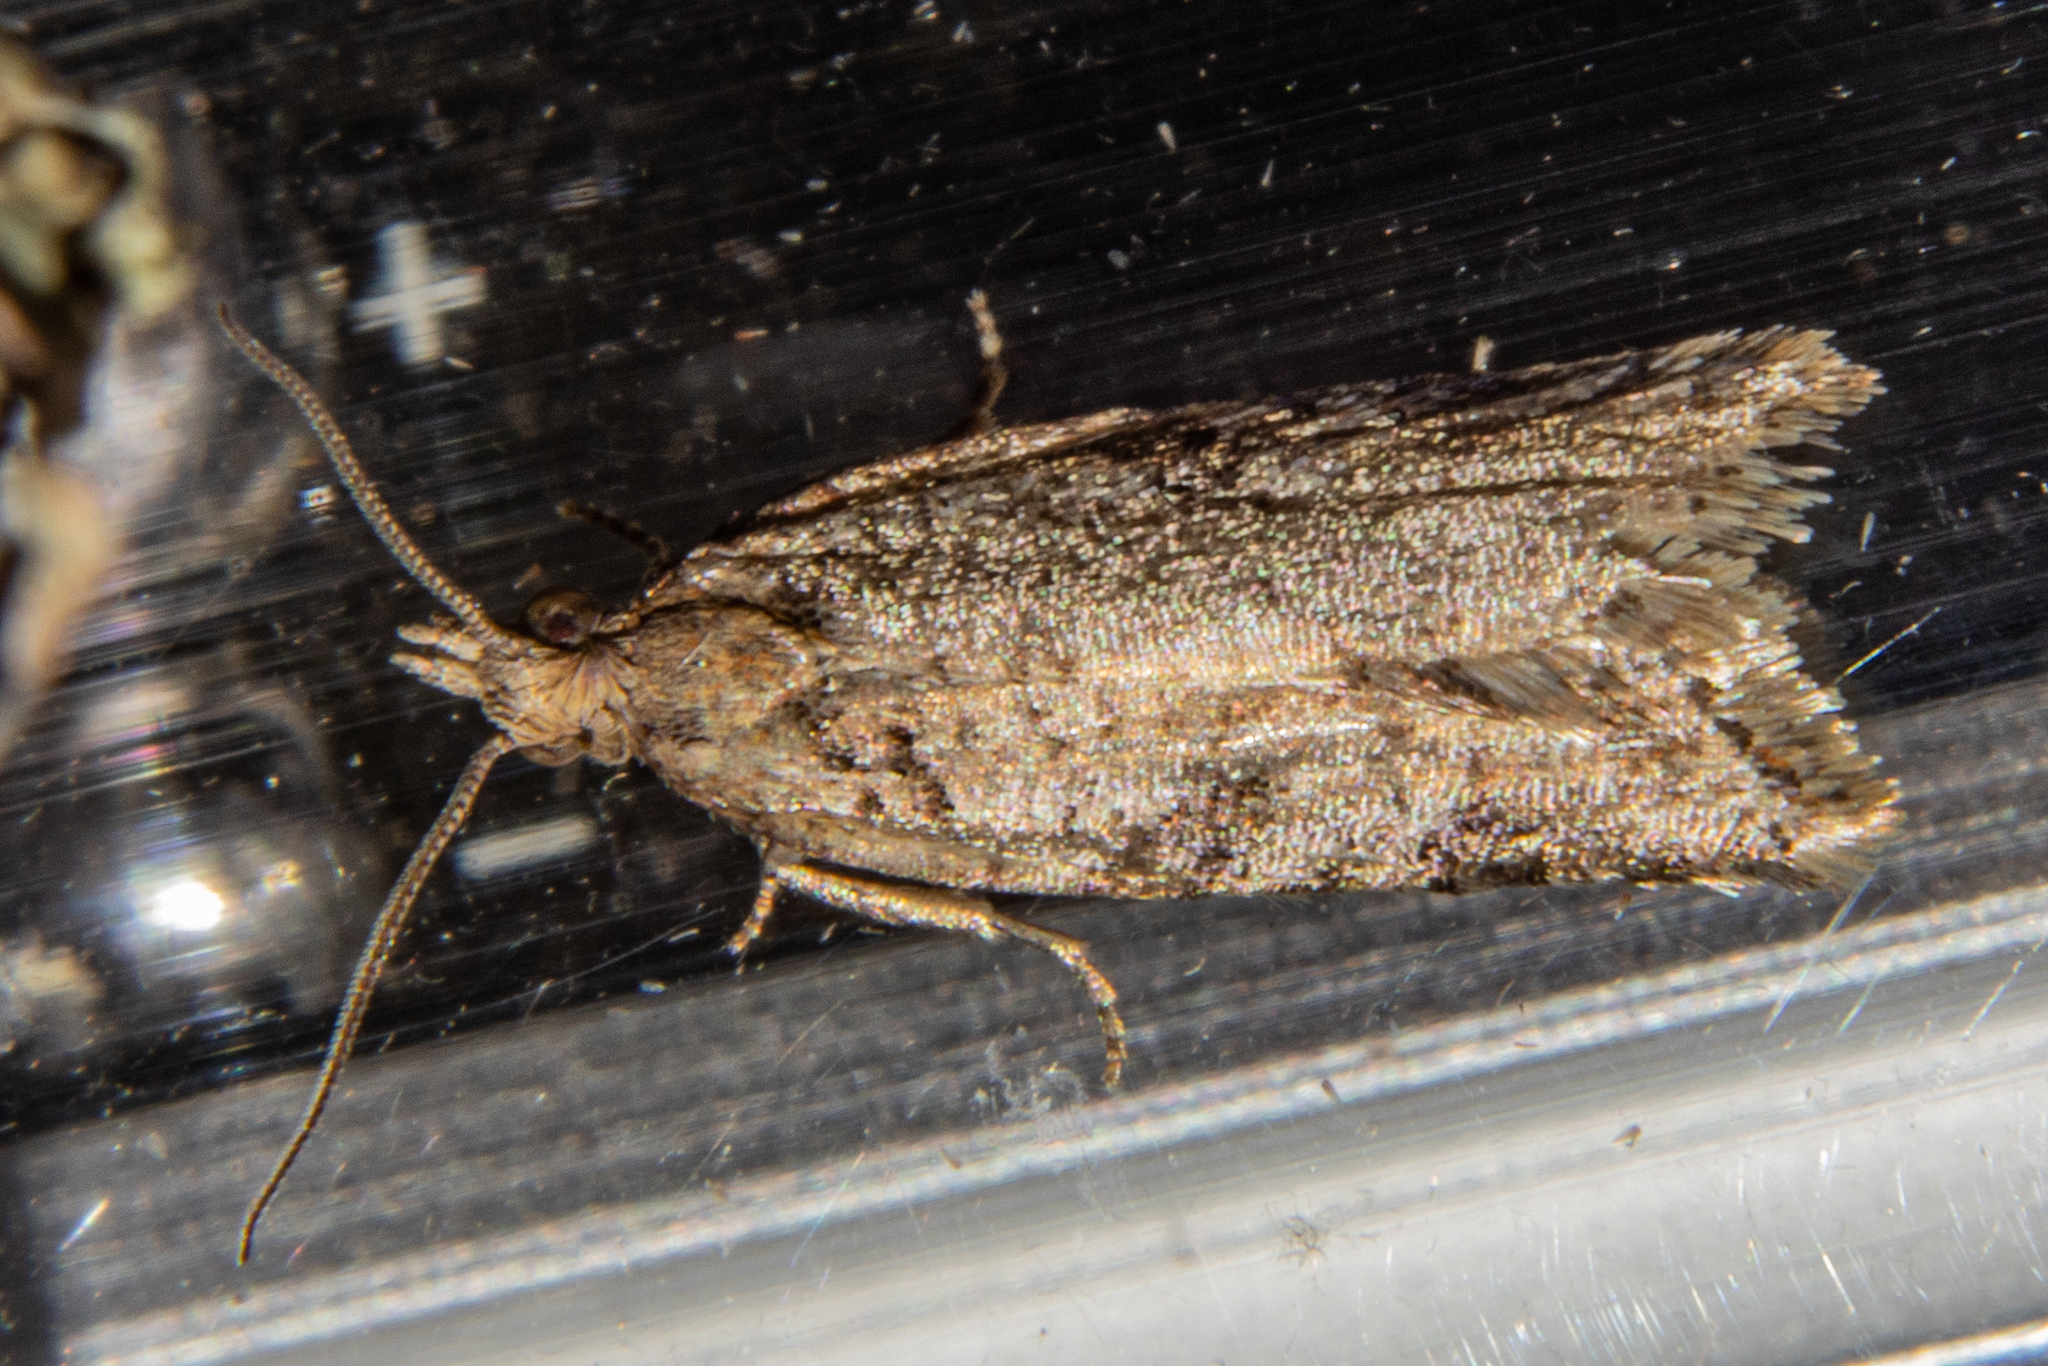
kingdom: Animalia
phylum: Arthropoda
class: Insecta
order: Lepidoptera
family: Tortricidae
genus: Capua
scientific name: Capua semiferana
